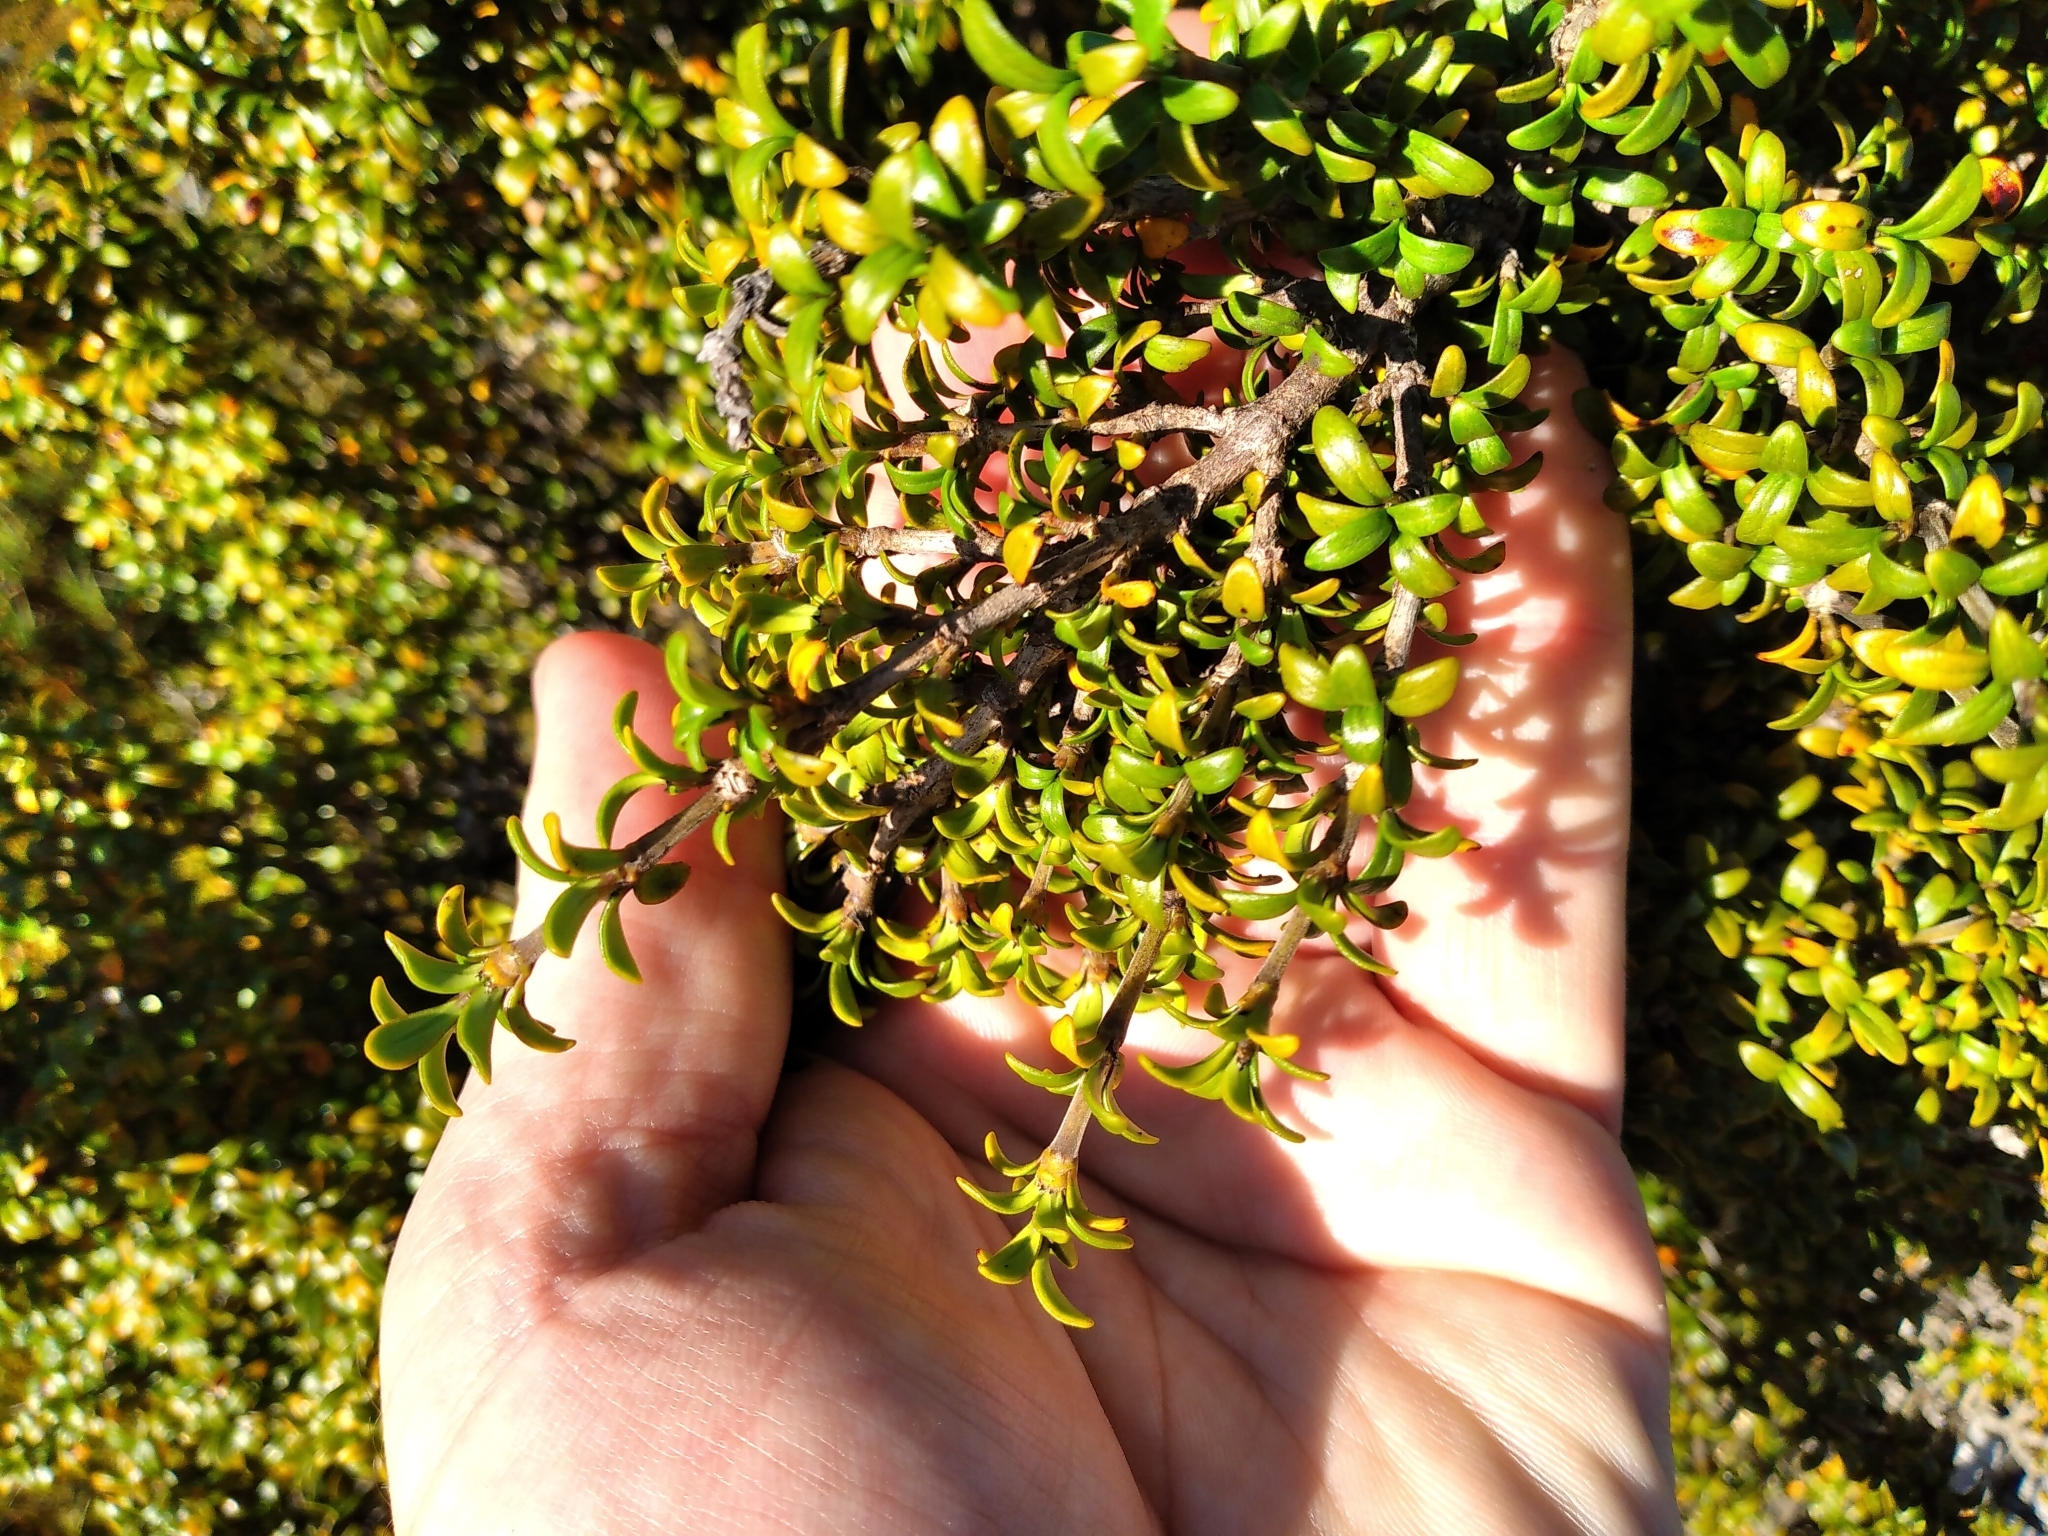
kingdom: Plantae
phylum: Tracheophyta
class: Magnoliopsida
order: Gentianales
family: Rubiaceae
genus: Coprosma
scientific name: Coprosma pseudocuneata
